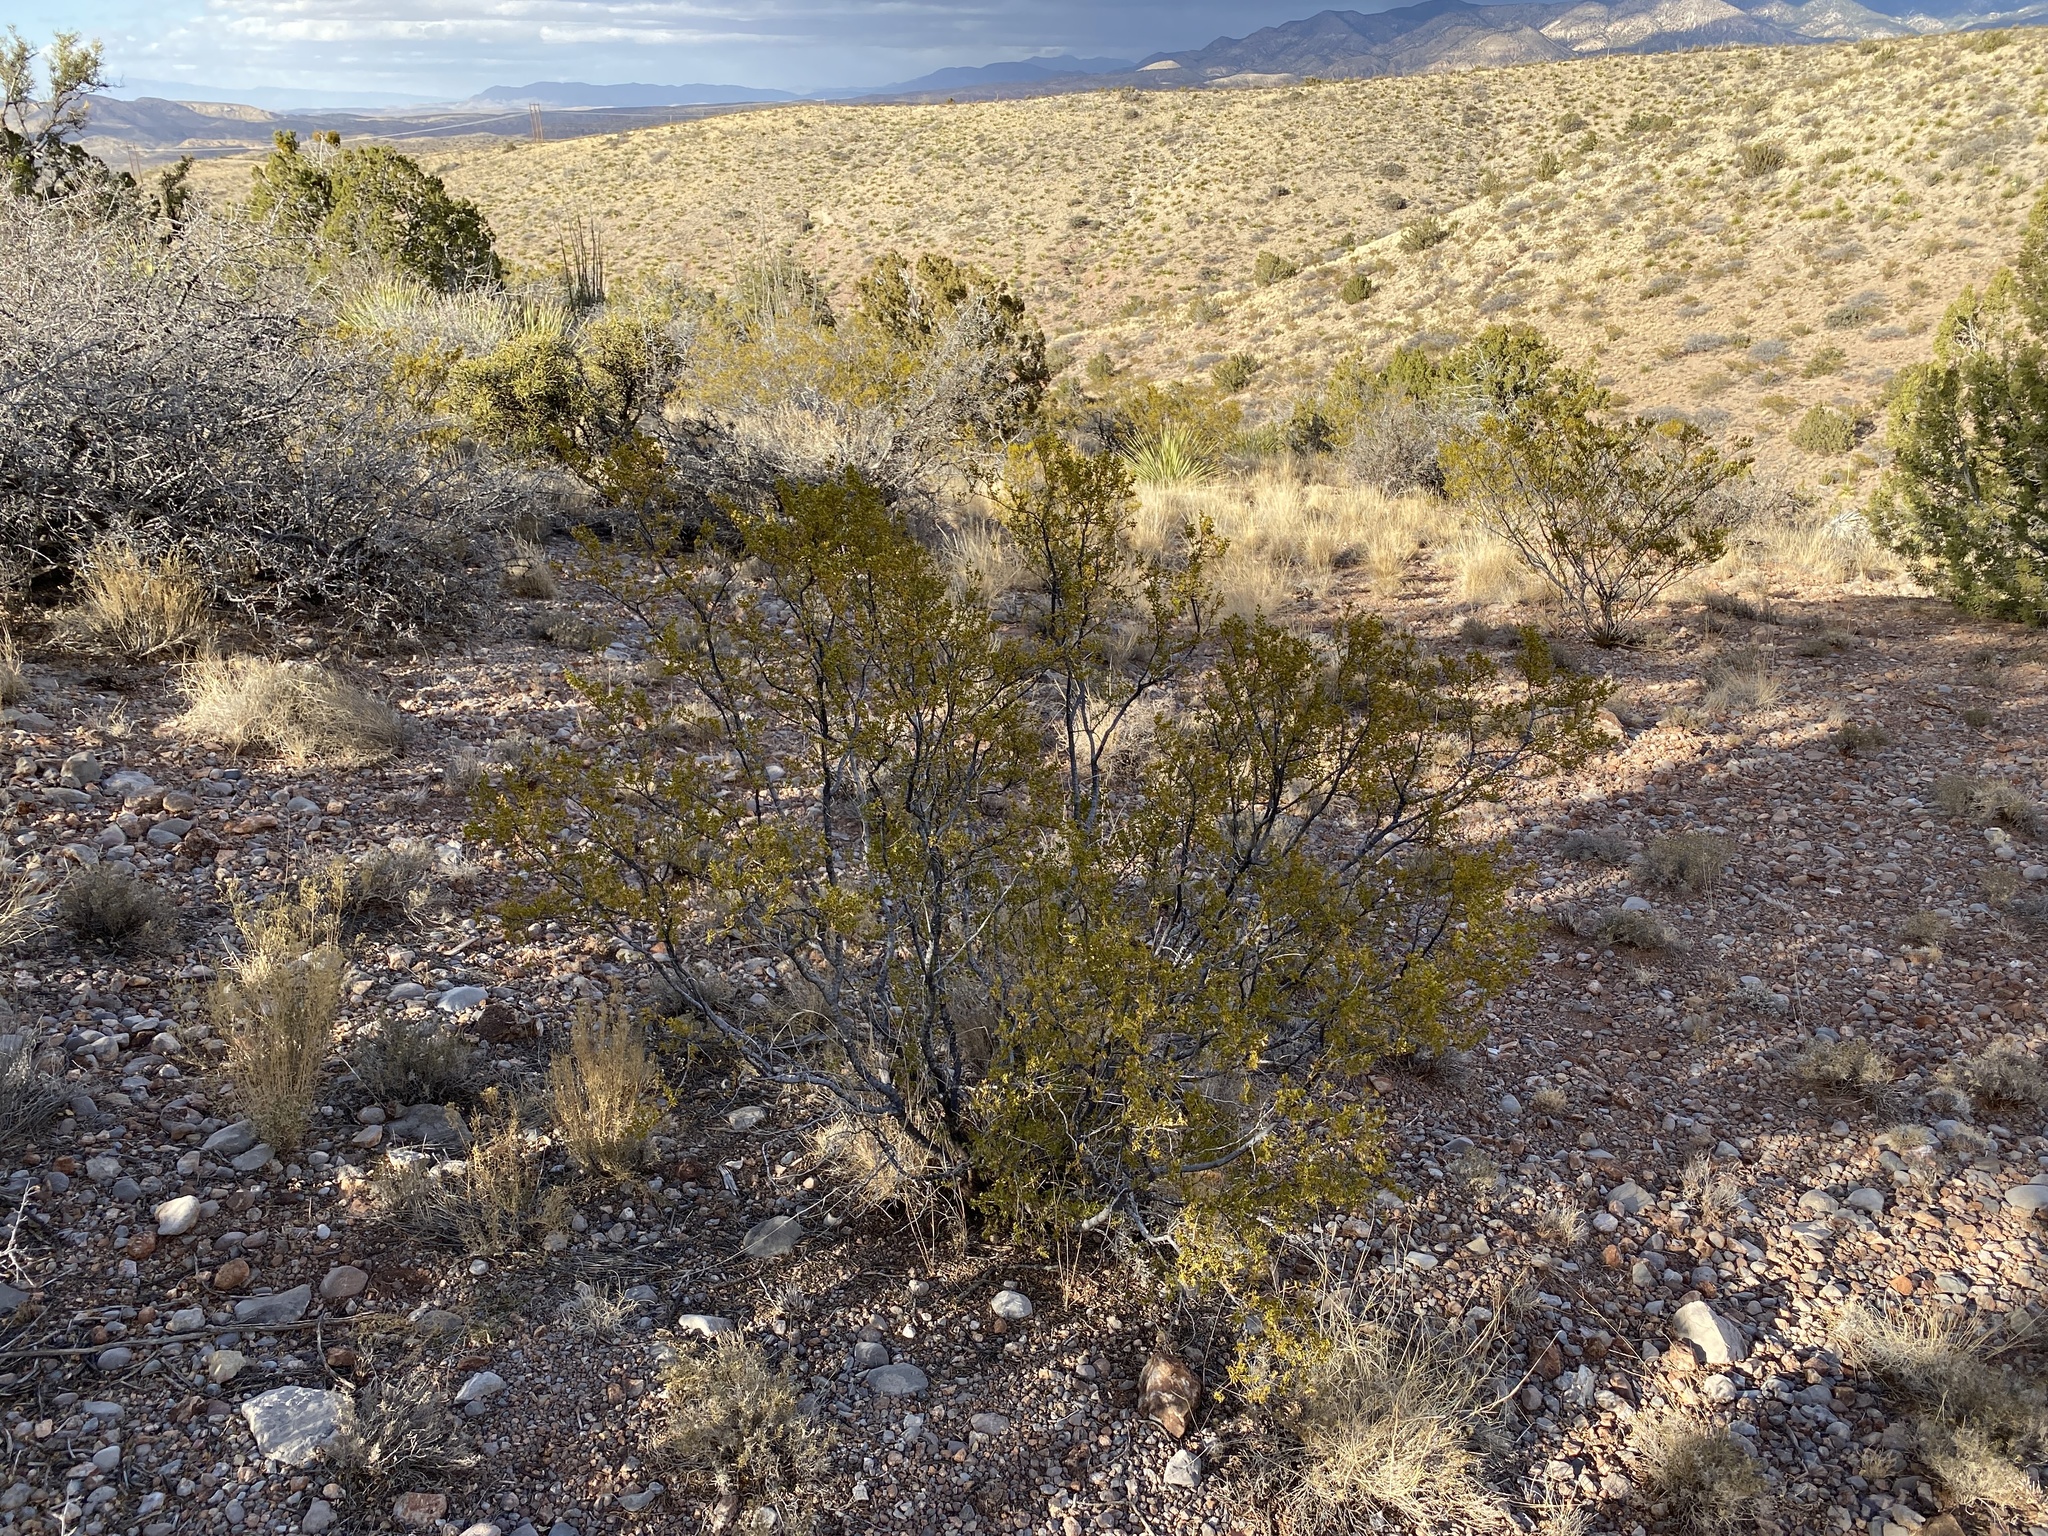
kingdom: Plantae
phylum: Tracheophyta
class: Magnoliopsida
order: Zygophyllales
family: Zygophyllaceae
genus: Larrea
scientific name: Larrea tridentata
